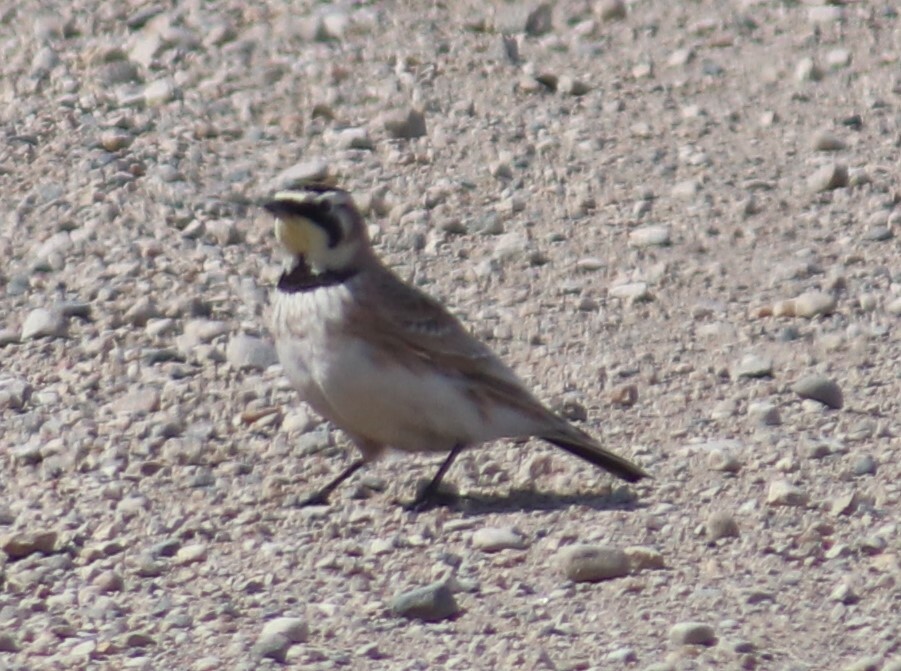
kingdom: Animalia
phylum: Chordata
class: Aves
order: Passeriformes
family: Alaudidae
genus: Eremophila
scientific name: Eremophila alpestris
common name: Horned lark
